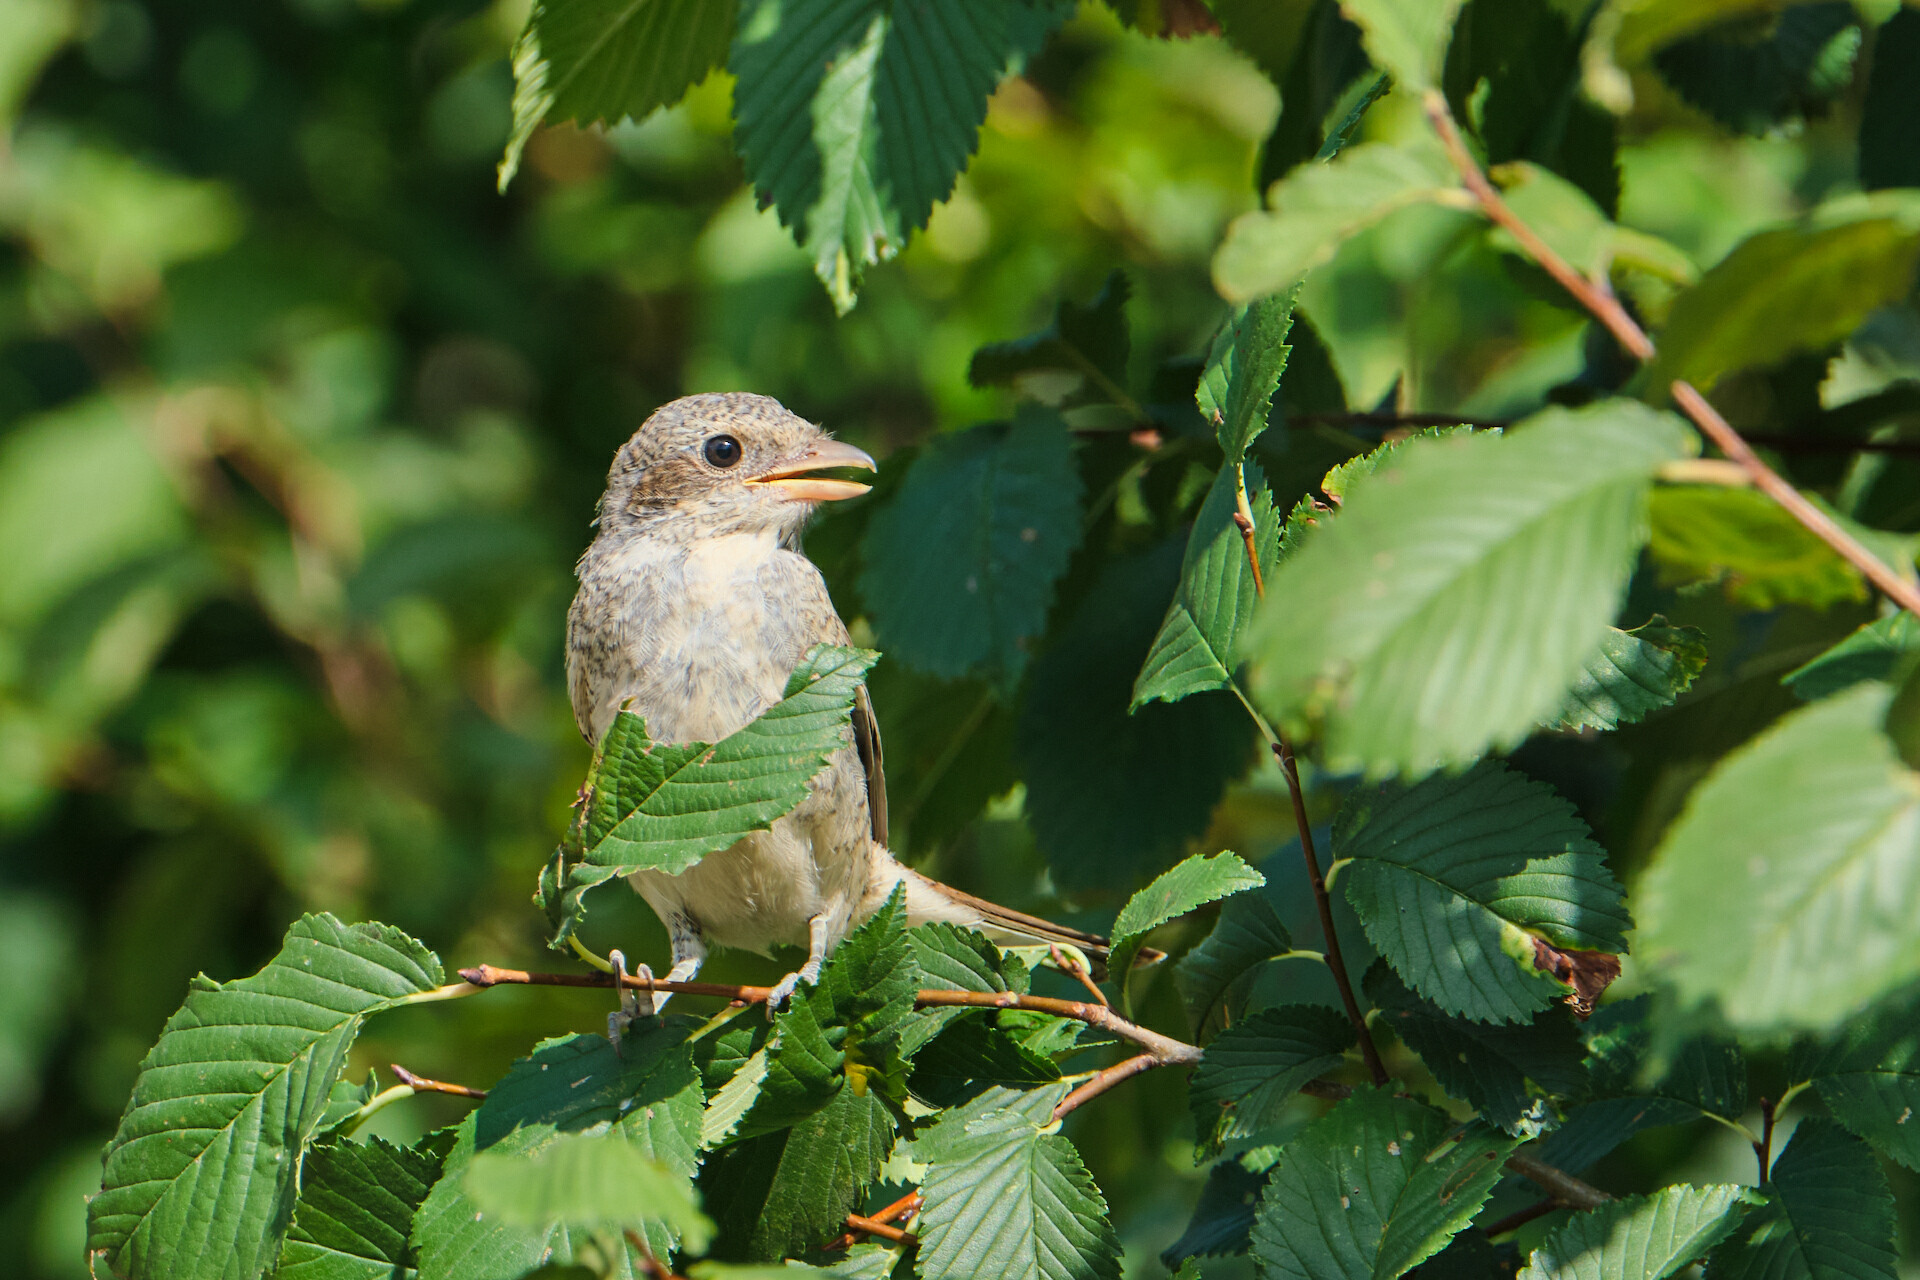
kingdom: Animalia
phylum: Chordata
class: Aves
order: Passeriformes
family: Laniidae
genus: Lanius
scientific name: Lanius collurio
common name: Red-backed shrike
